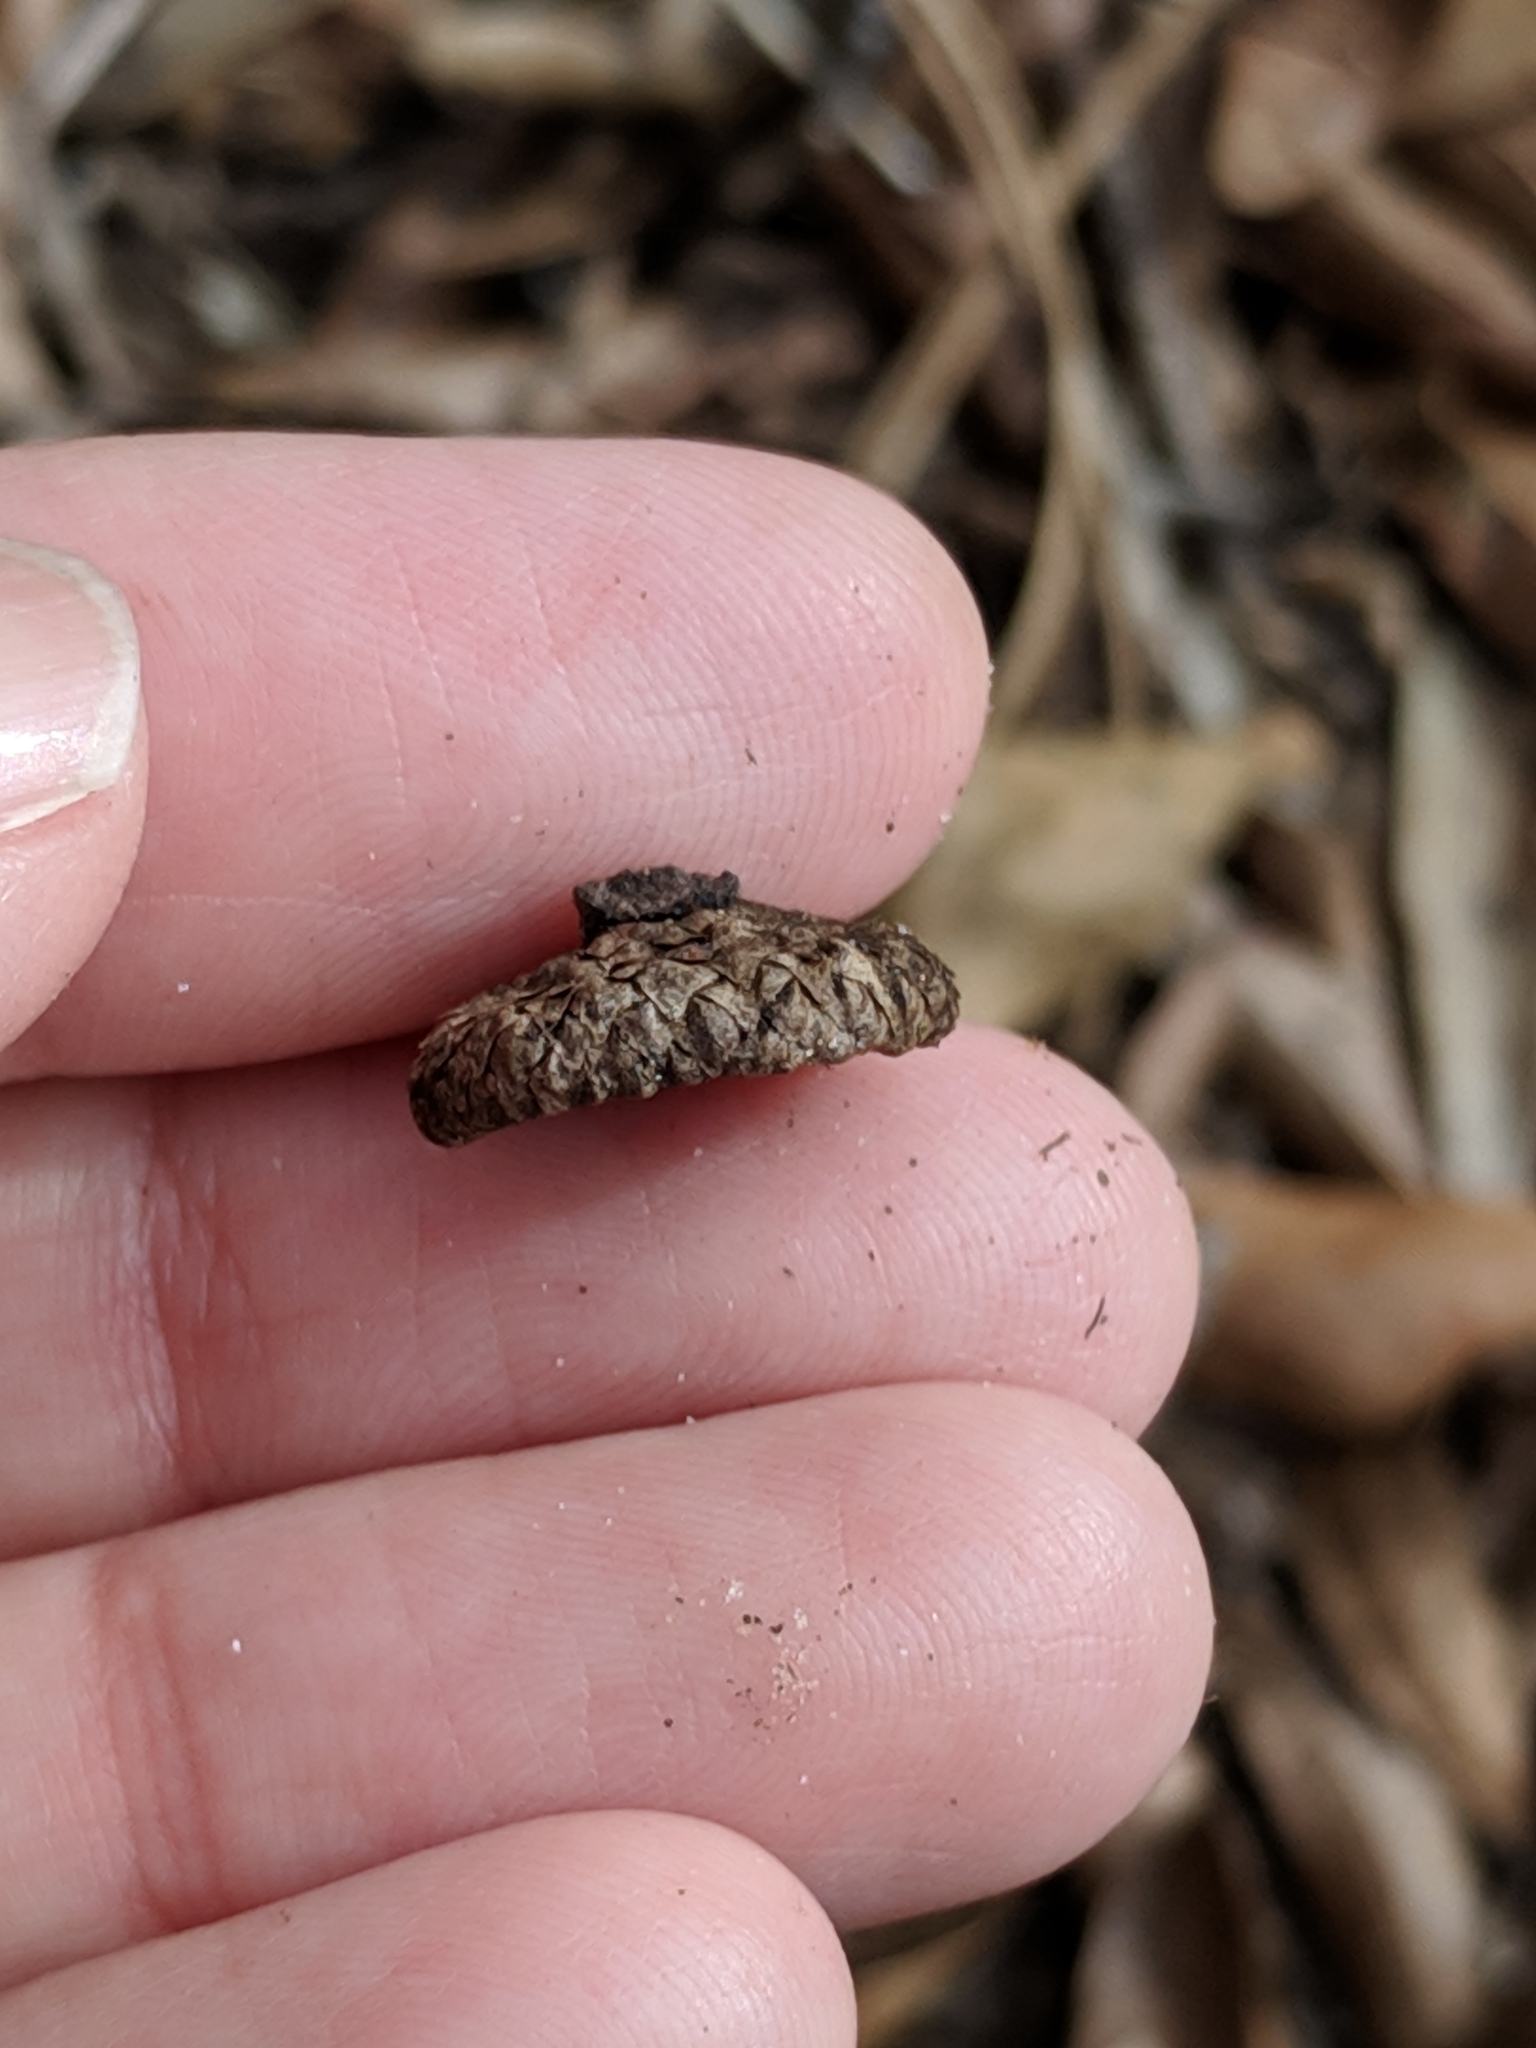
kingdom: Plantae
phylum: Tracheophyta
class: Magnoliopsida
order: Fagales
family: Fagaceae
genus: Quercus
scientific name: Quercus hemisphaerica
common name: Darlington oak
